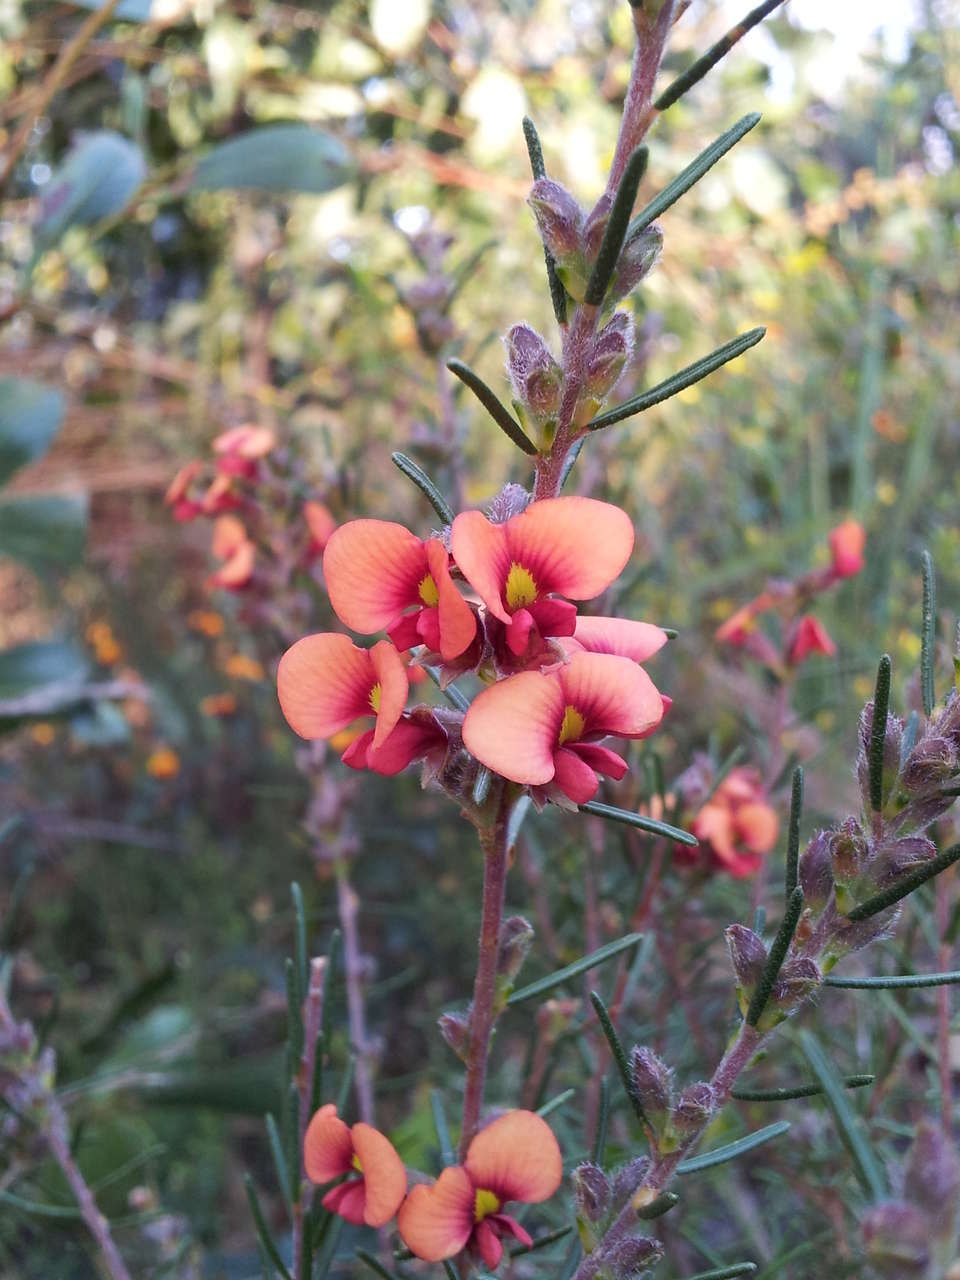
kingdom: Plantae
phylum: Tracheophyta
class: Magnoliopsida
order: Fabales
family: Fabaceae
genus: Dillwynia
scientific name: Dillwynia sericea
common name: Showy parrot-pea
